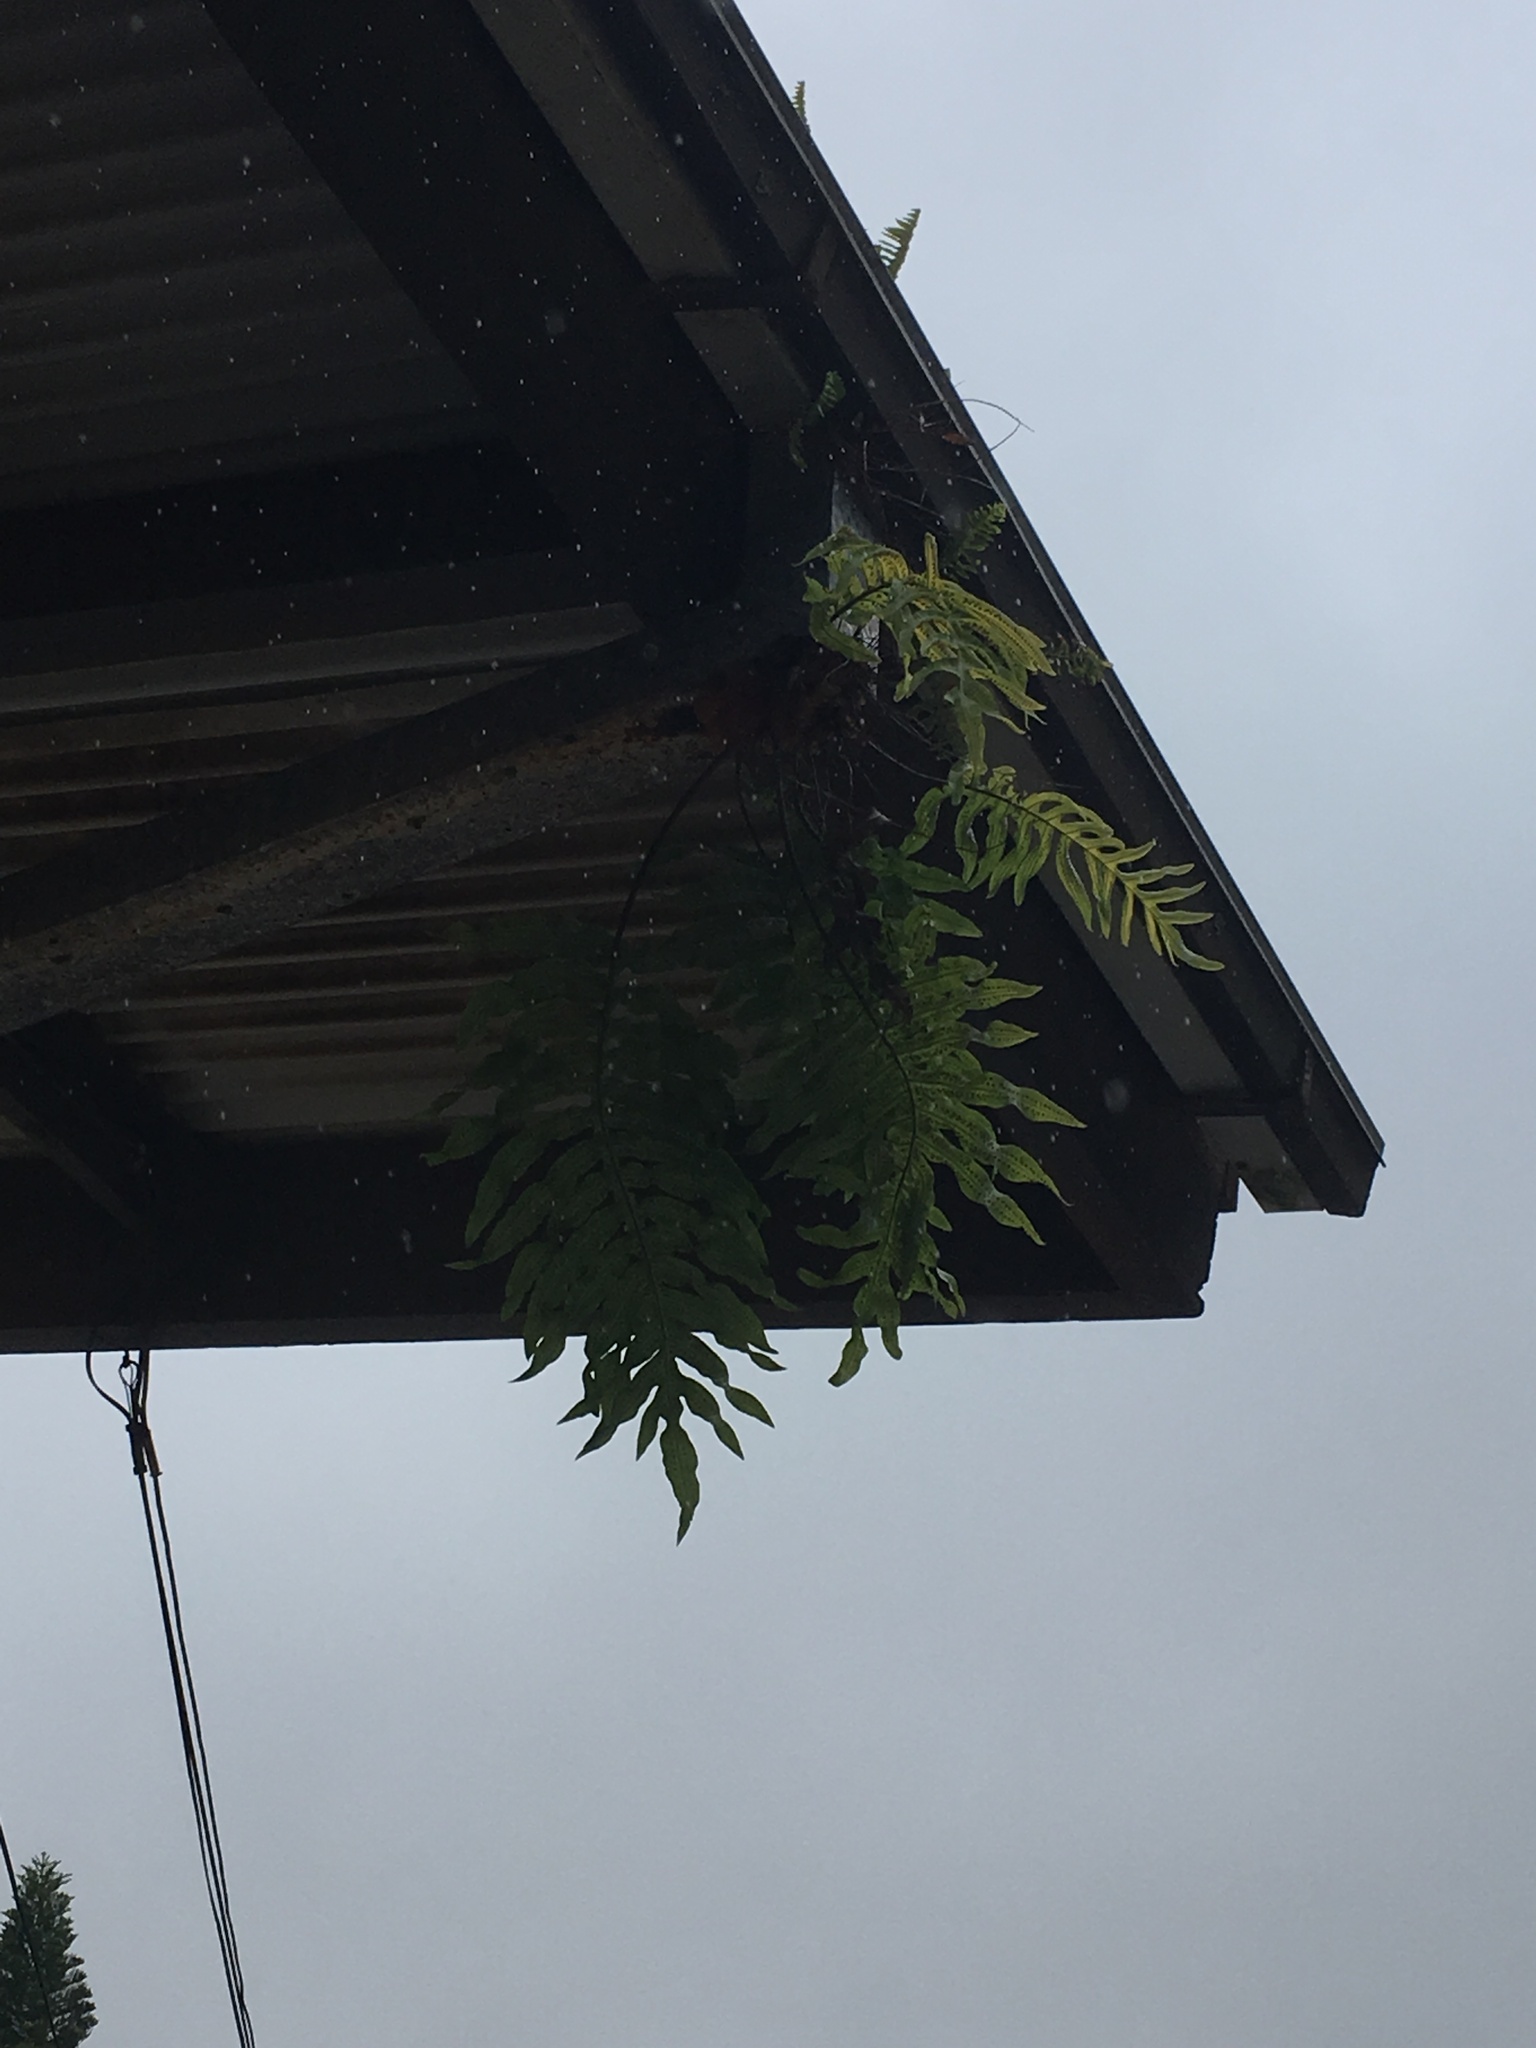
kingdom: Plantae
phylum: Tracheophyta
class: Polypodiopsida
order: Polypodiales
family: Polypodiaceae
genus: Phlebodium
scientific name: Phlebodium aureum
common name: Gold-foot fern
